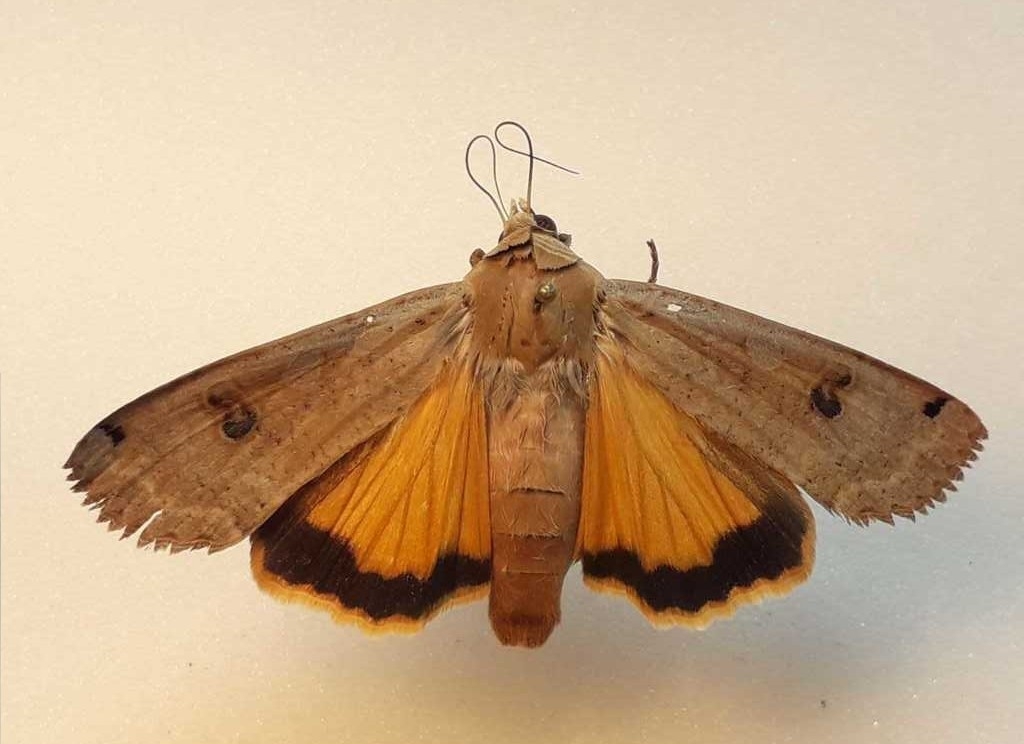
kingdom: Animalia
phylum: Arthropoda
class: Insecta
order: Lepidoptera
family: Noctuidae
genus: Noctua
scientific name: Noctua pronuba
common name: Large yellow underwing
